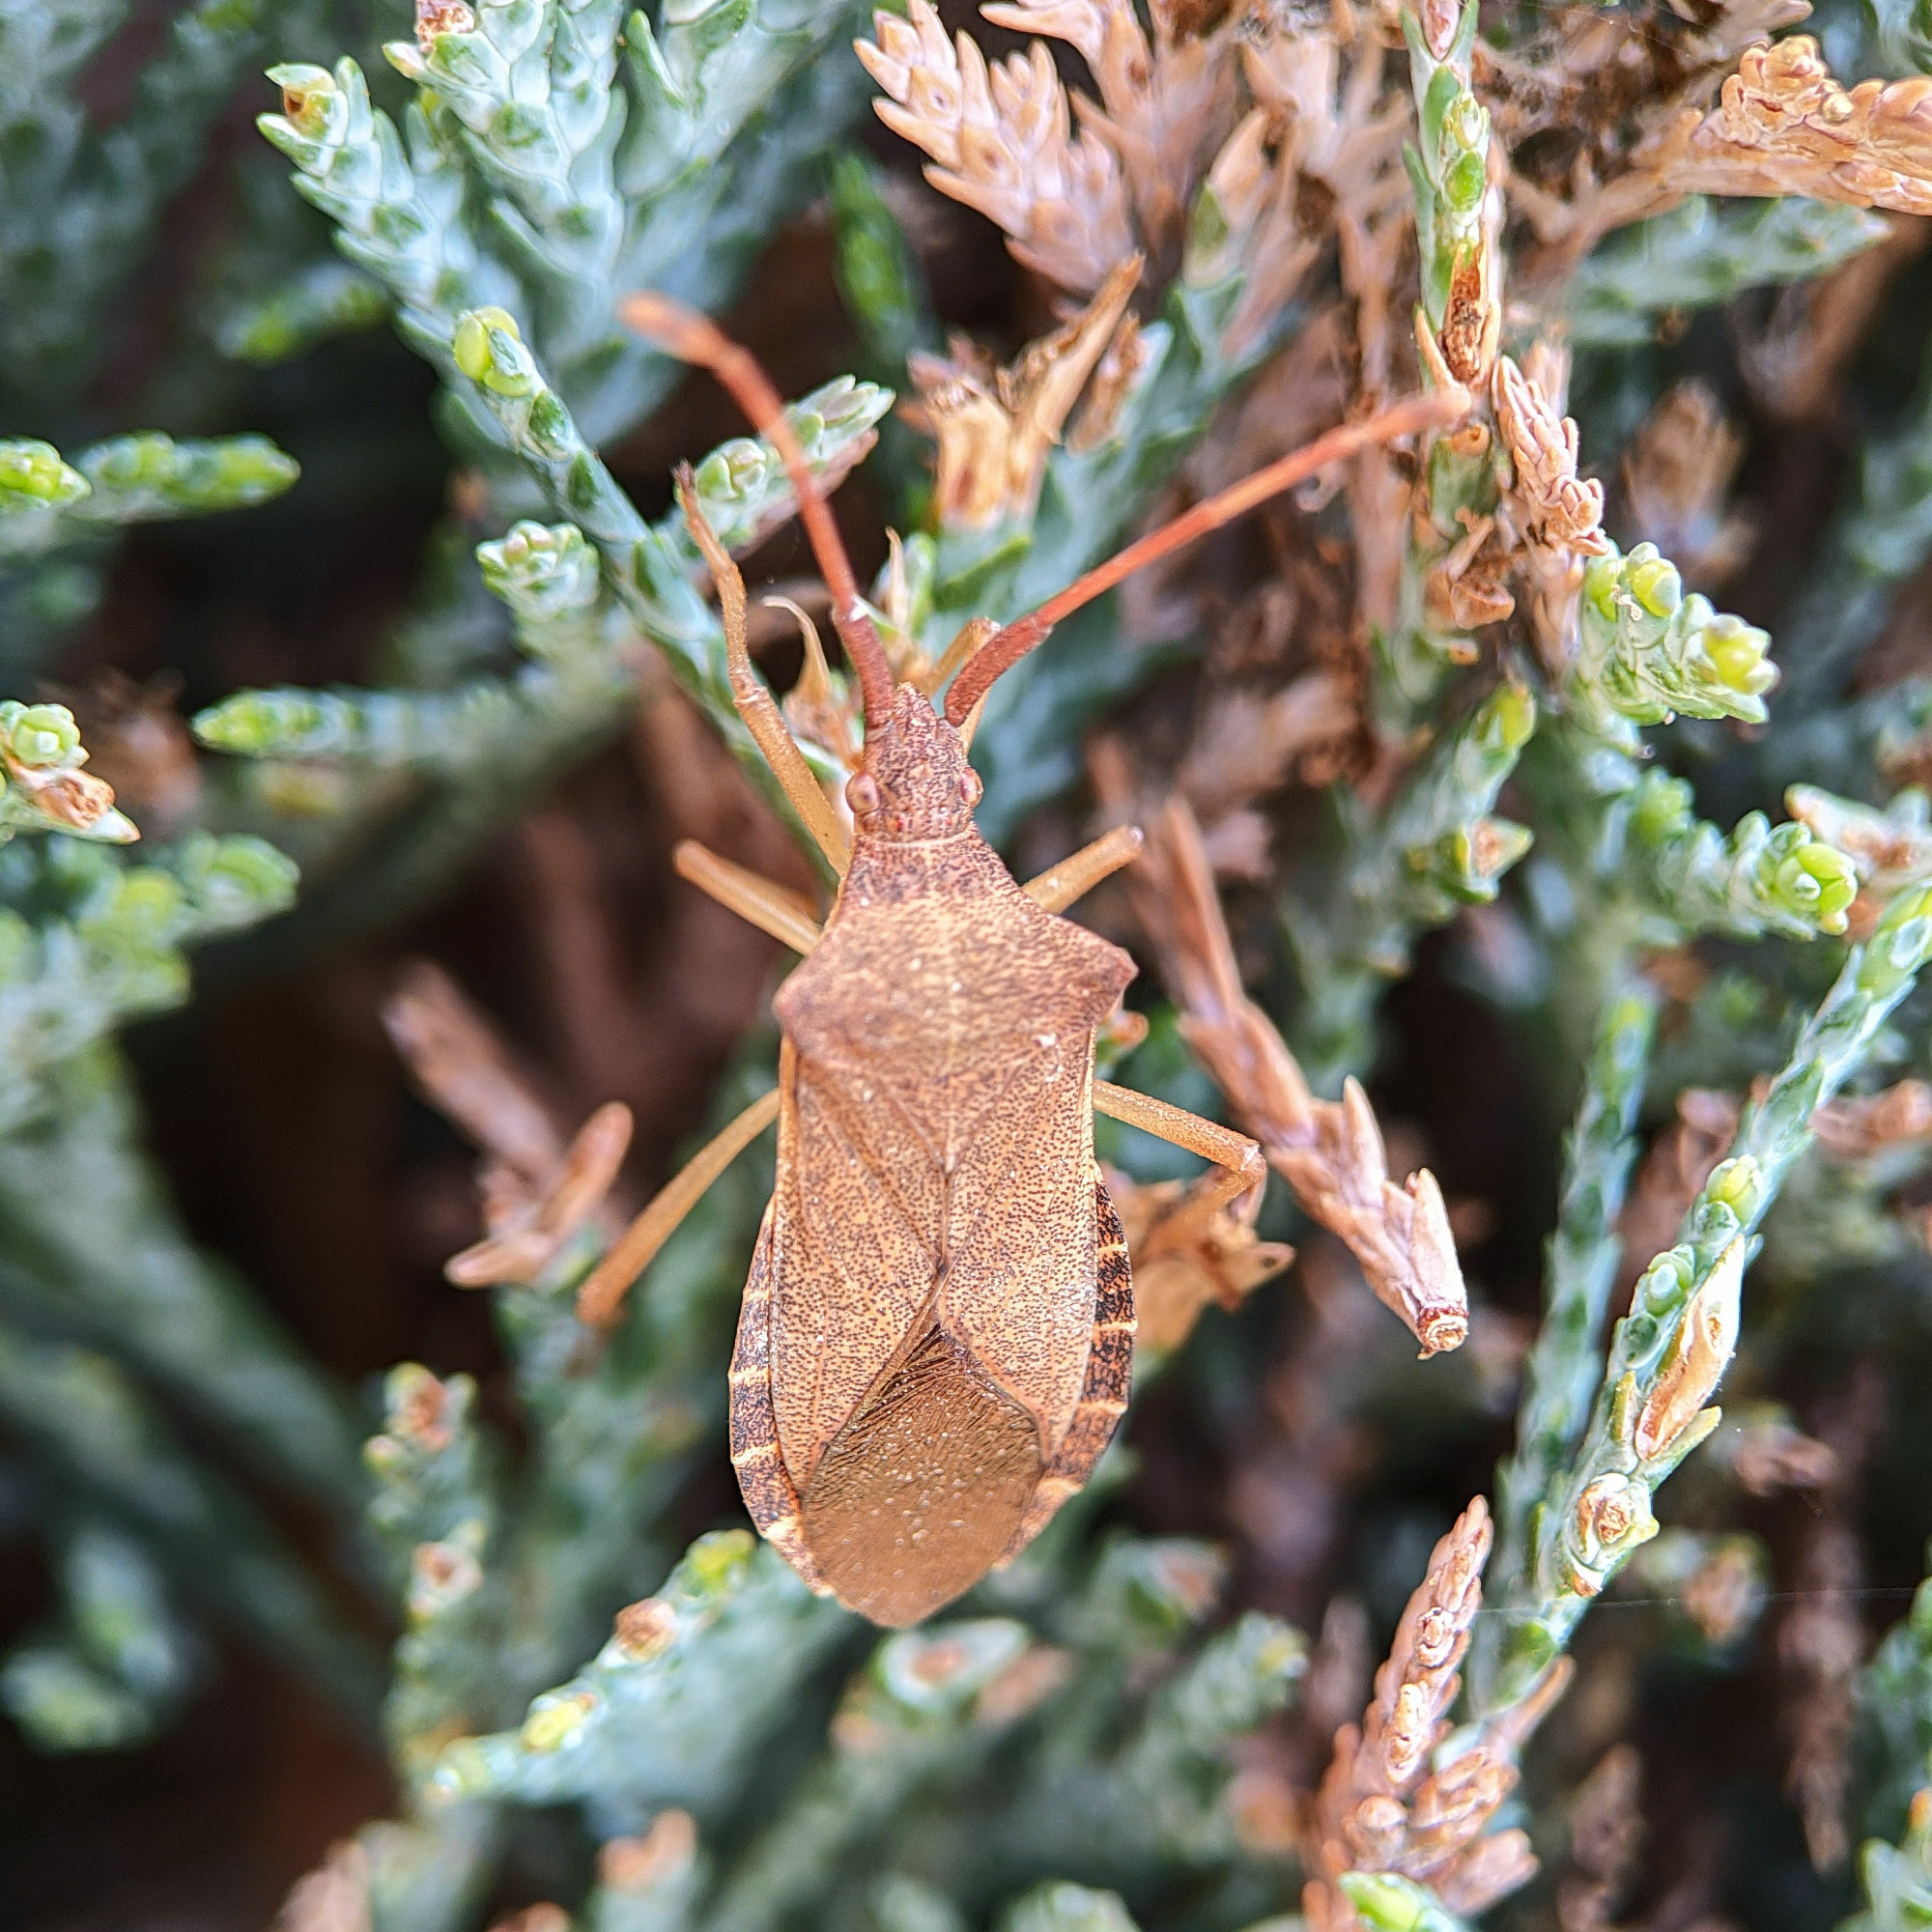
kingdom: Animalia
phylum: Arthropoda
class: Insecta
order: Hemiptera
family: Coreidae
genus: Gonocerus
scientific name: Gonocerus acuteangulatus
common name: Box bug
